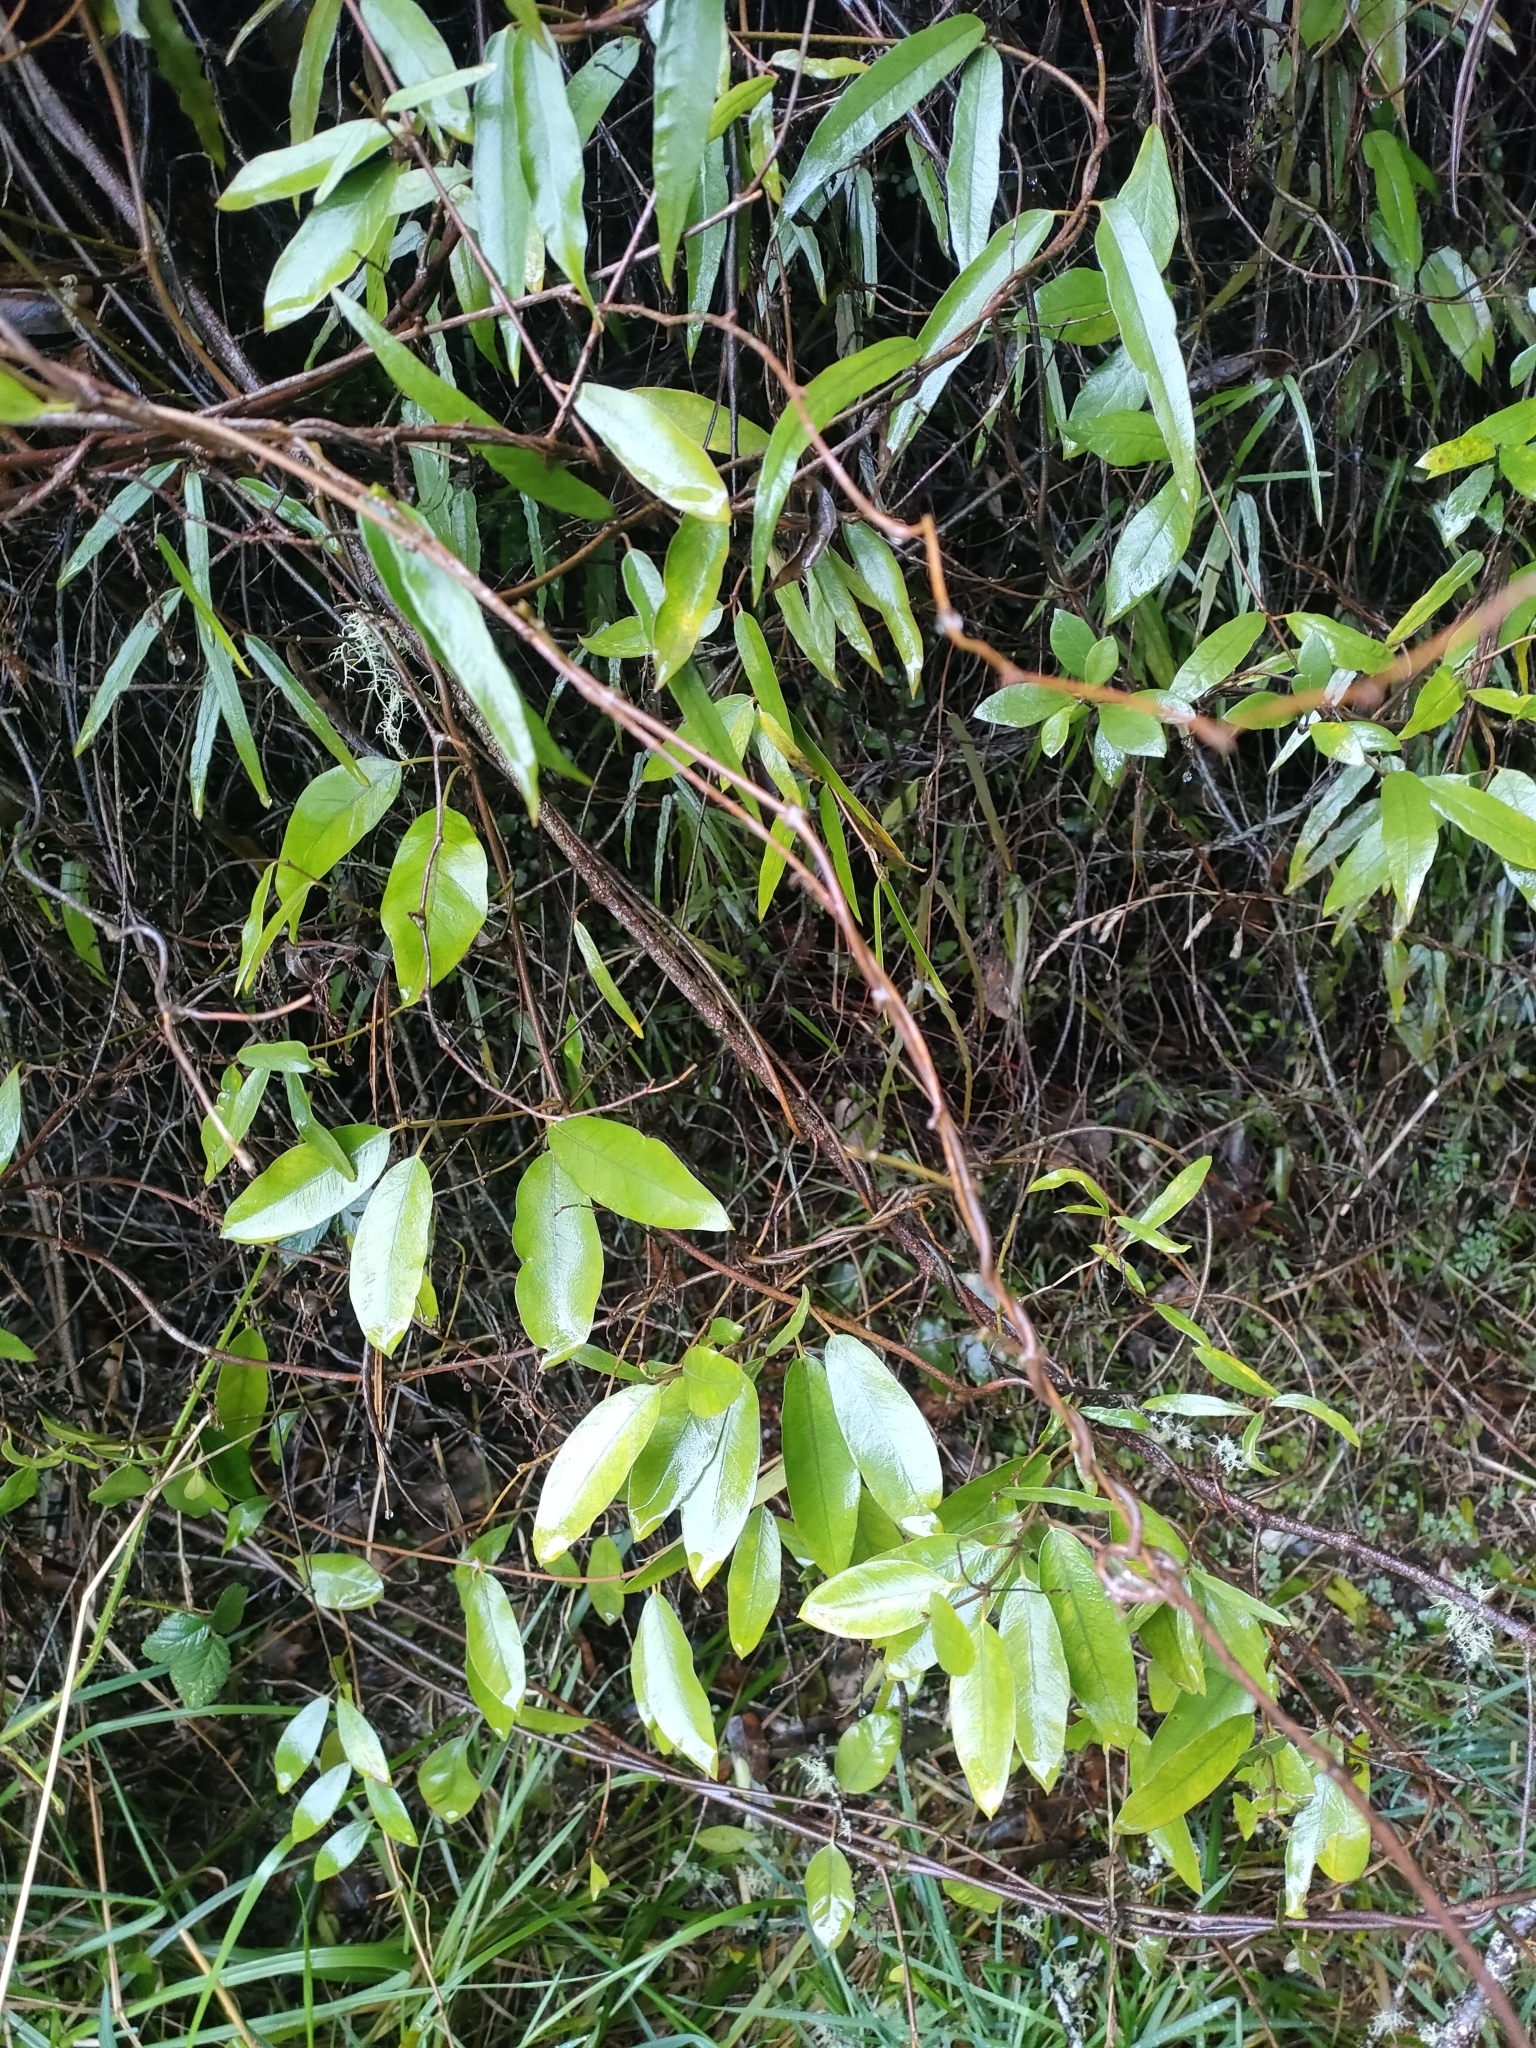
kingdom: Plantae
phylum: Tracheophyta
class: Magnoliopsida
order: Gentianales
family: Apocynaceae
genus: Parsonsia
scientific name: Parsonsia heterophylla
